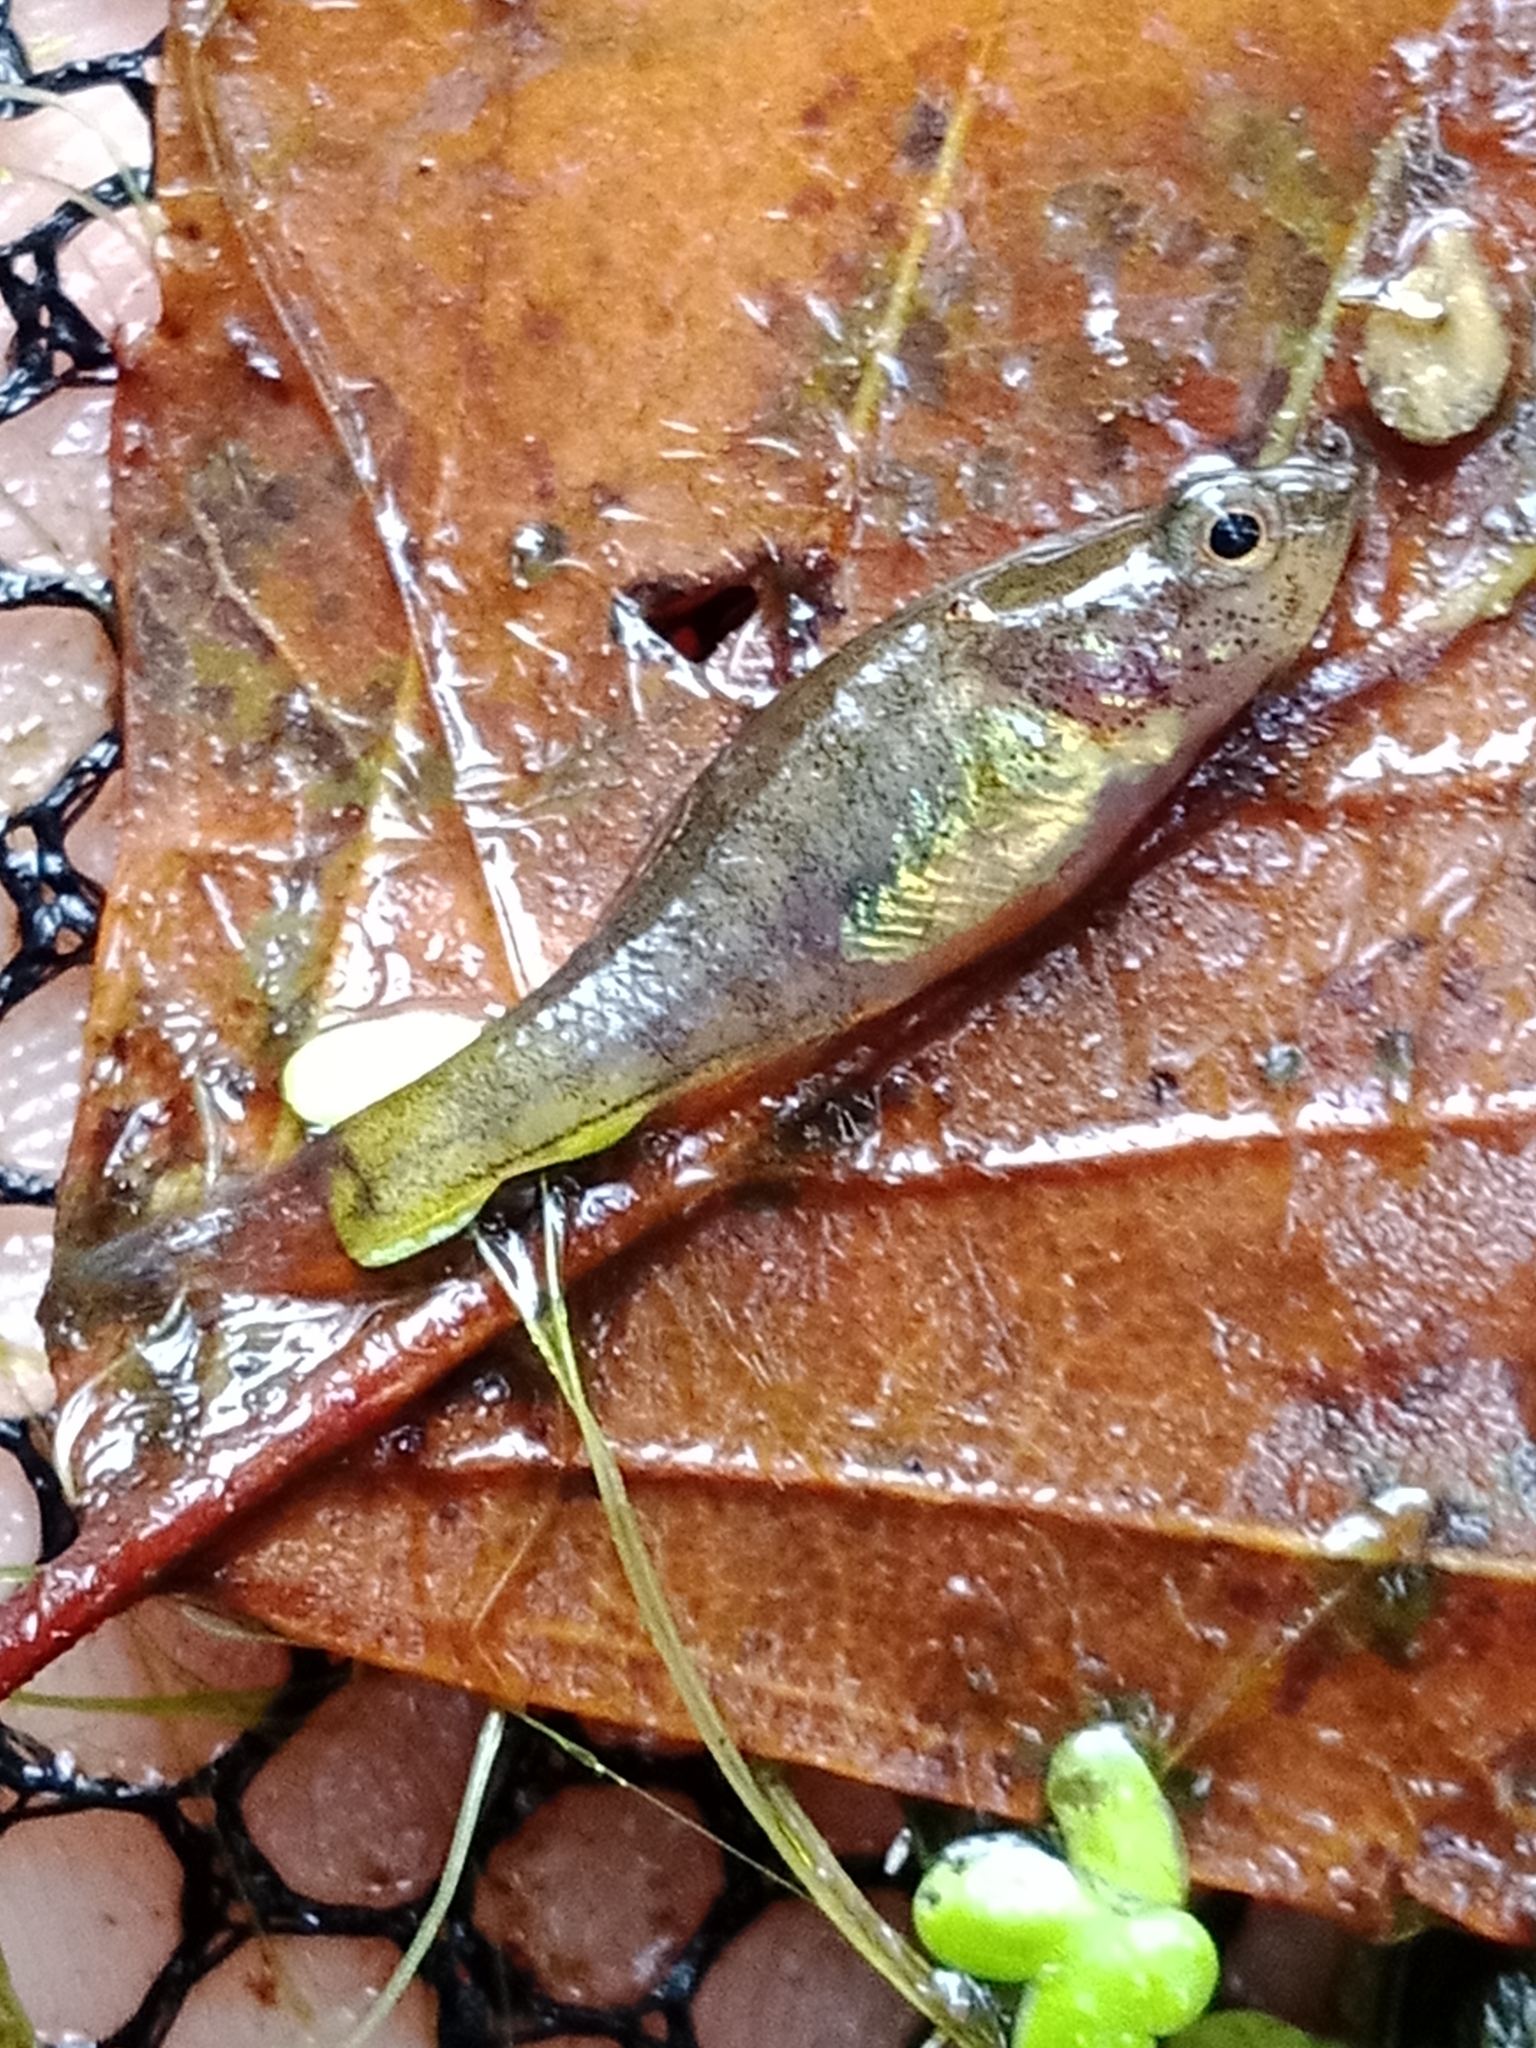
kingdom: Animalia
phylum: Chordata
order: Perciformes
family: Odontobutidae
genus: Perccottus
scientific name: Perccottus glenii
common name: Amur sleeper
